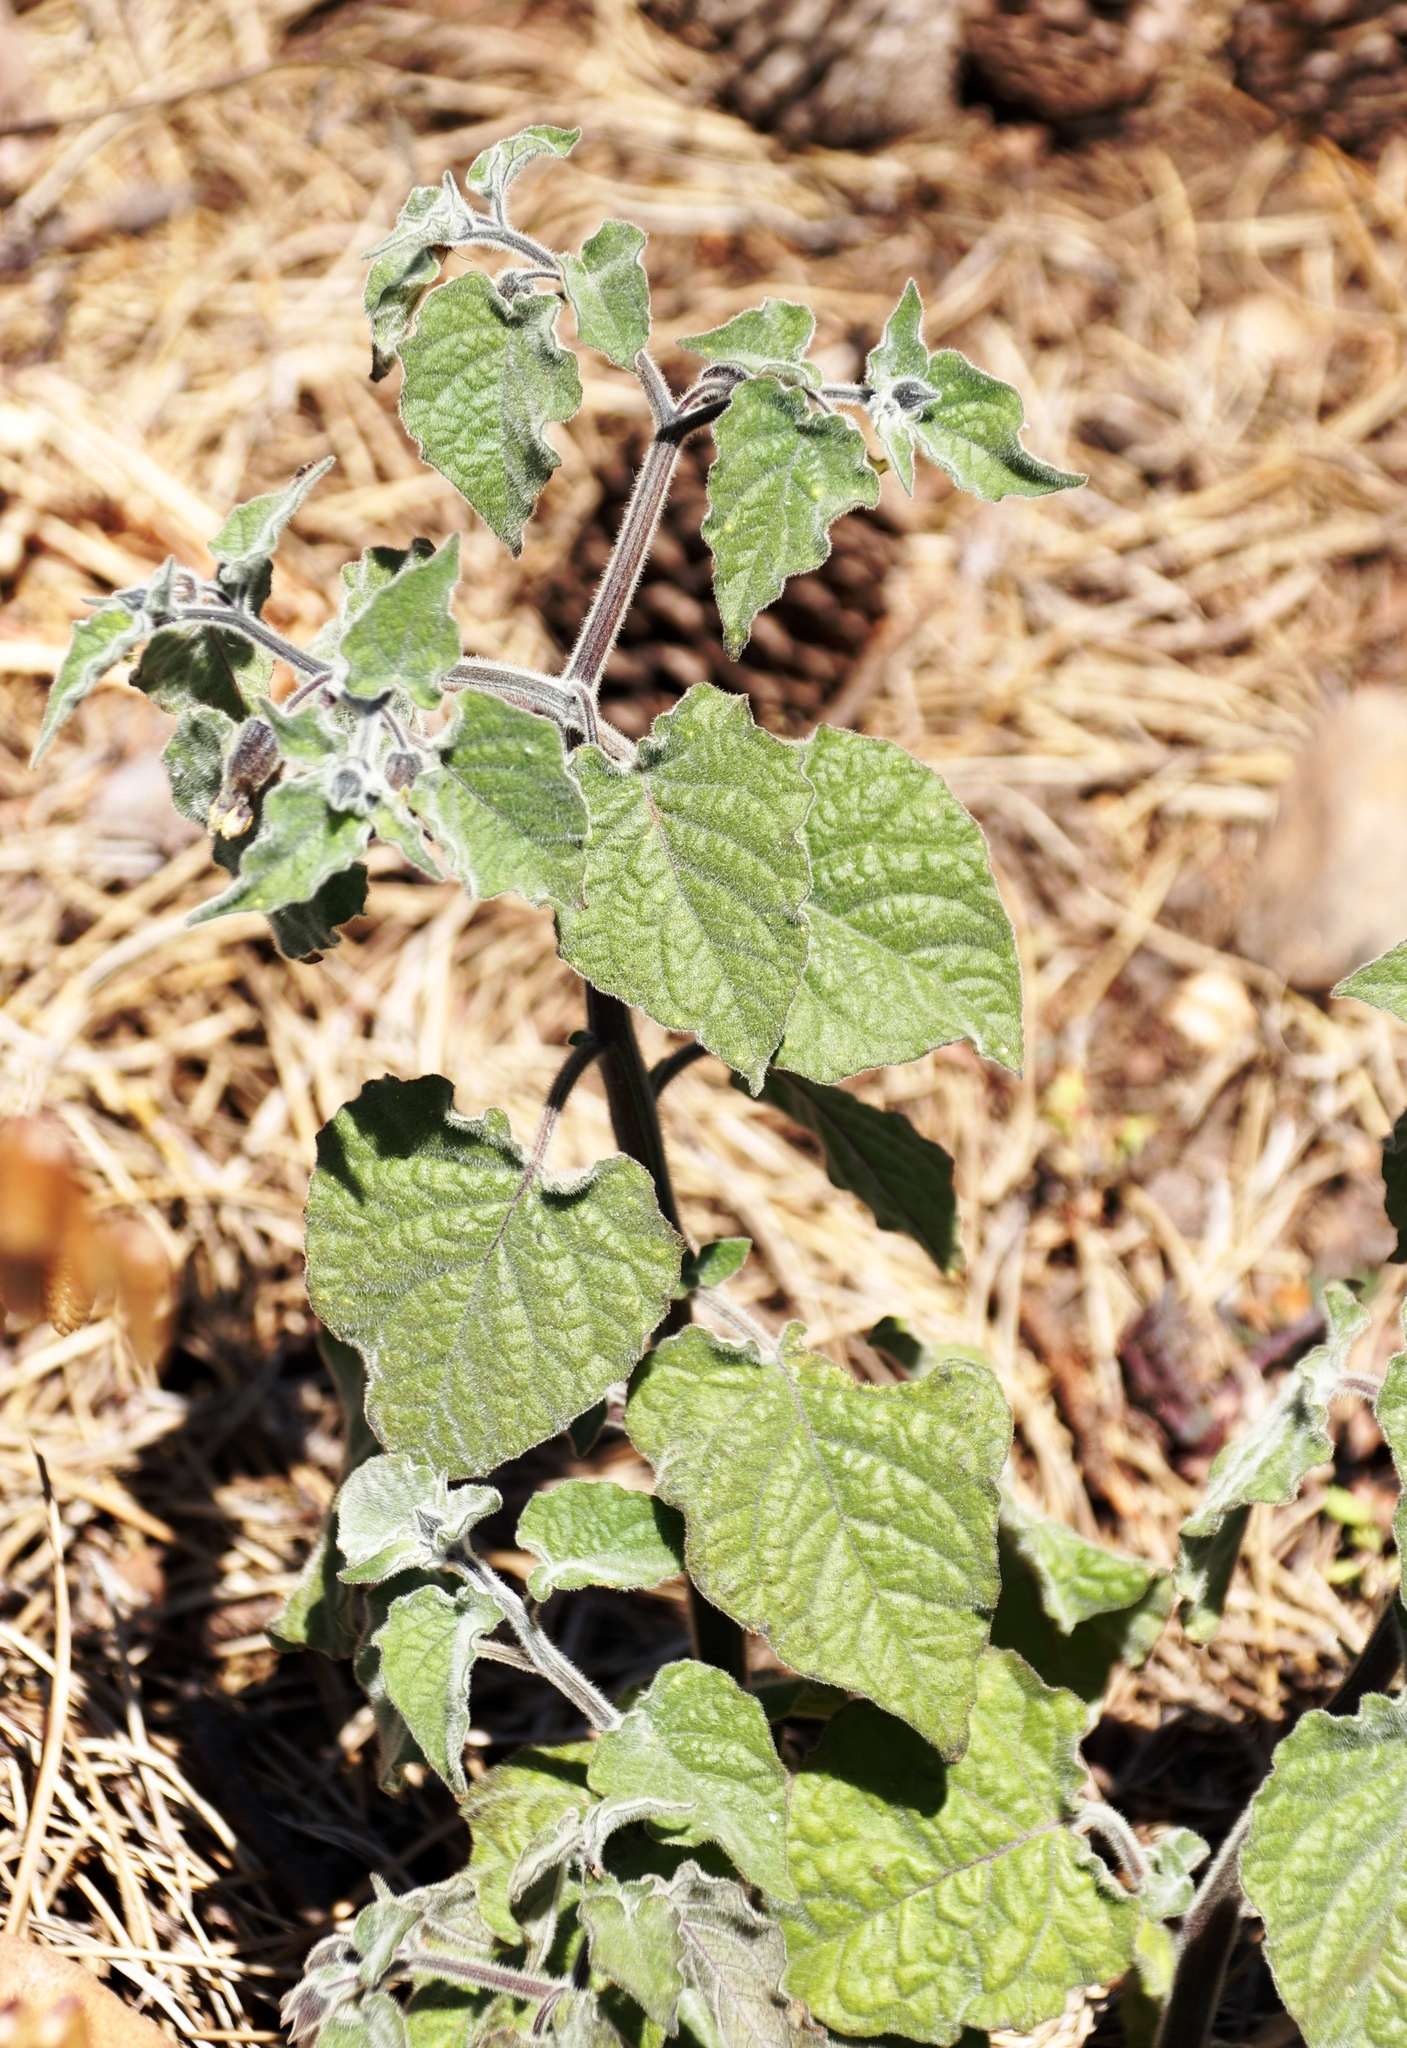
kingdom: Plantae
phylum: Tracheophyta
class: Magnoliopsida
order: Solanales
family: Solanaceae
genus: Physalis
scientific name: Physalis peruviana
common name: Cape-gooseberry
